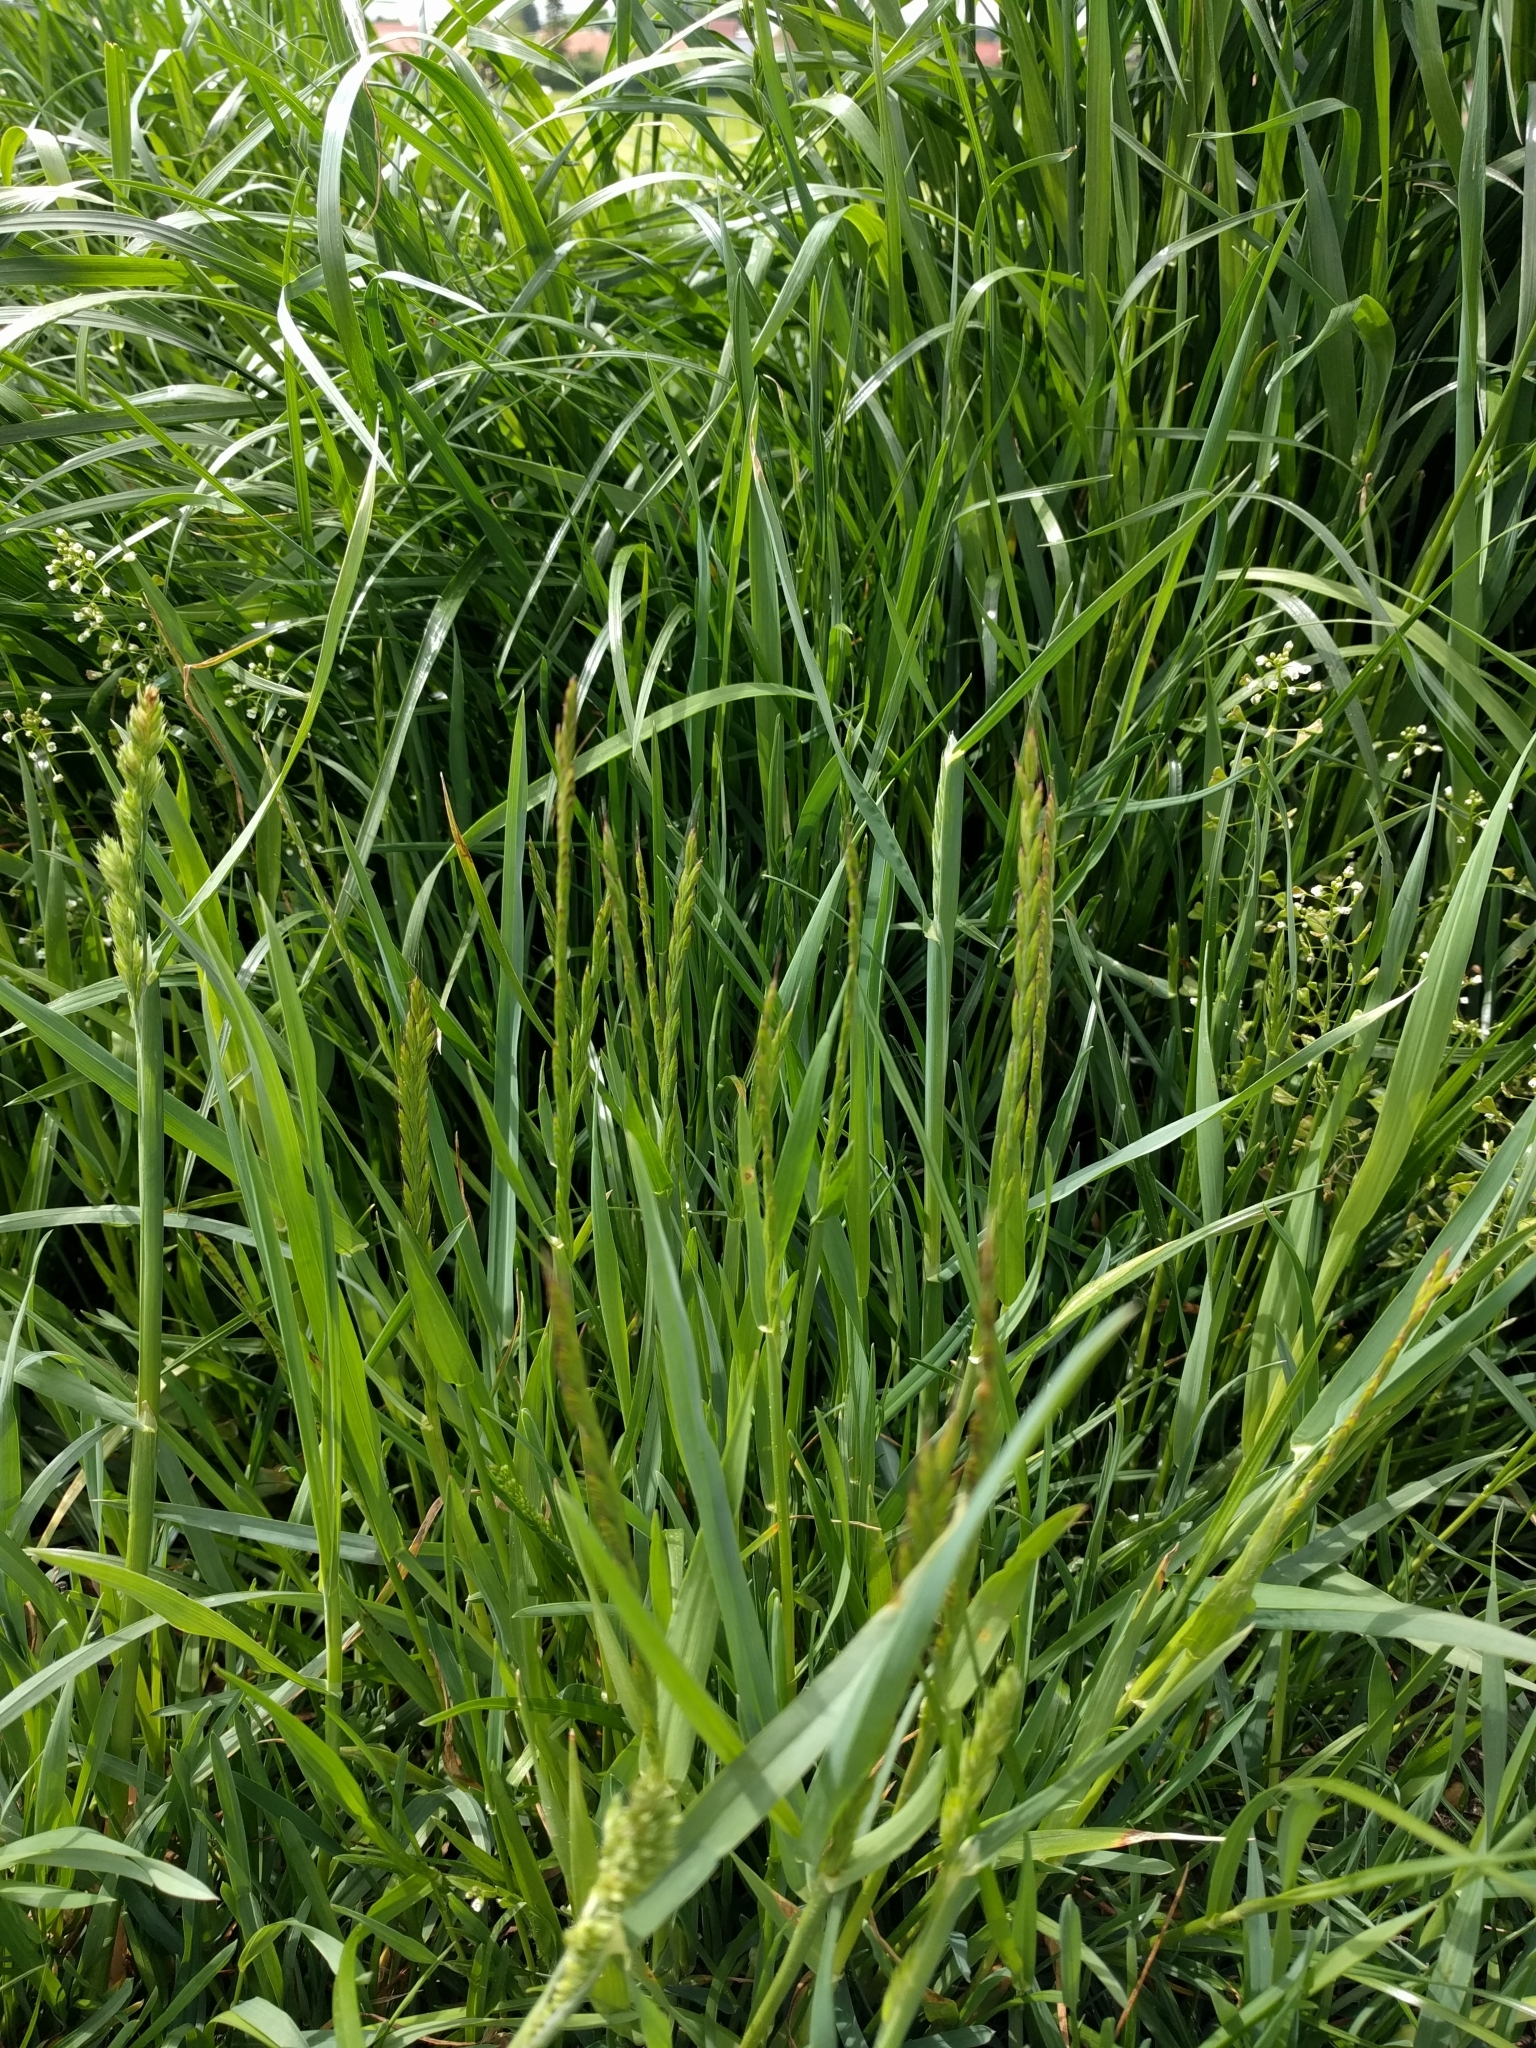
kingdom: Plantae
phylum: Tracheophyta
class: Liliopsida
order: Poales
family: Poaceae
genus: Lolium
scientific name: Lolium perenne
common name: Perennial ryegrass
